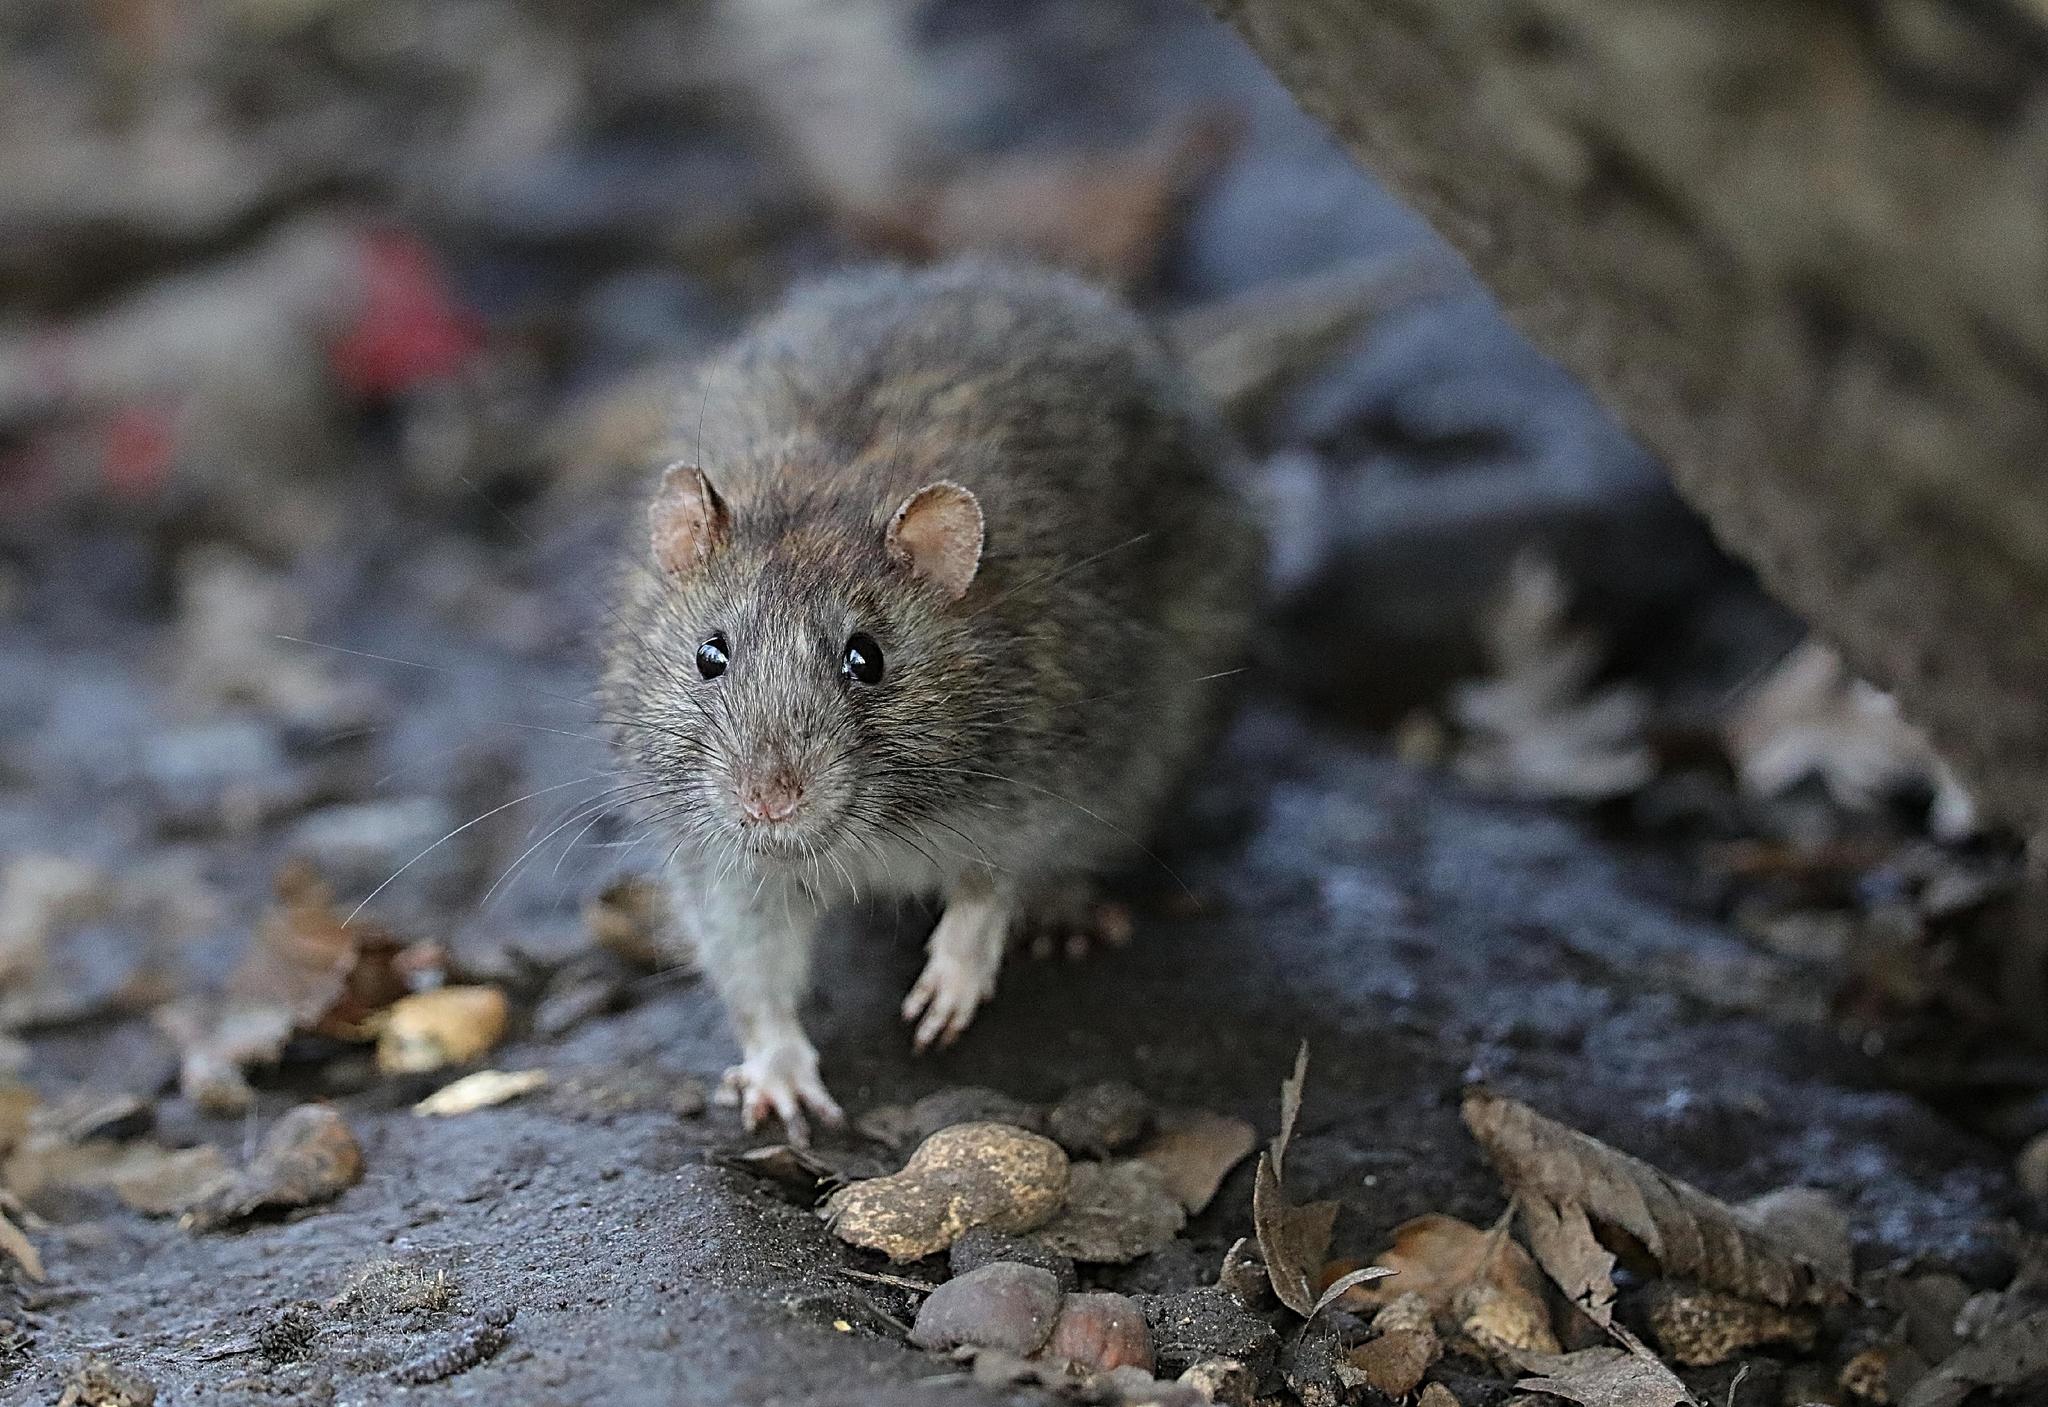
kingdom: Animalia
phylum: Chordata
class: Mammalia
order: Rodentia
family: Muridae
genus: Rattus
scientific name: Rattus norvegicus
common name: Brown rat
